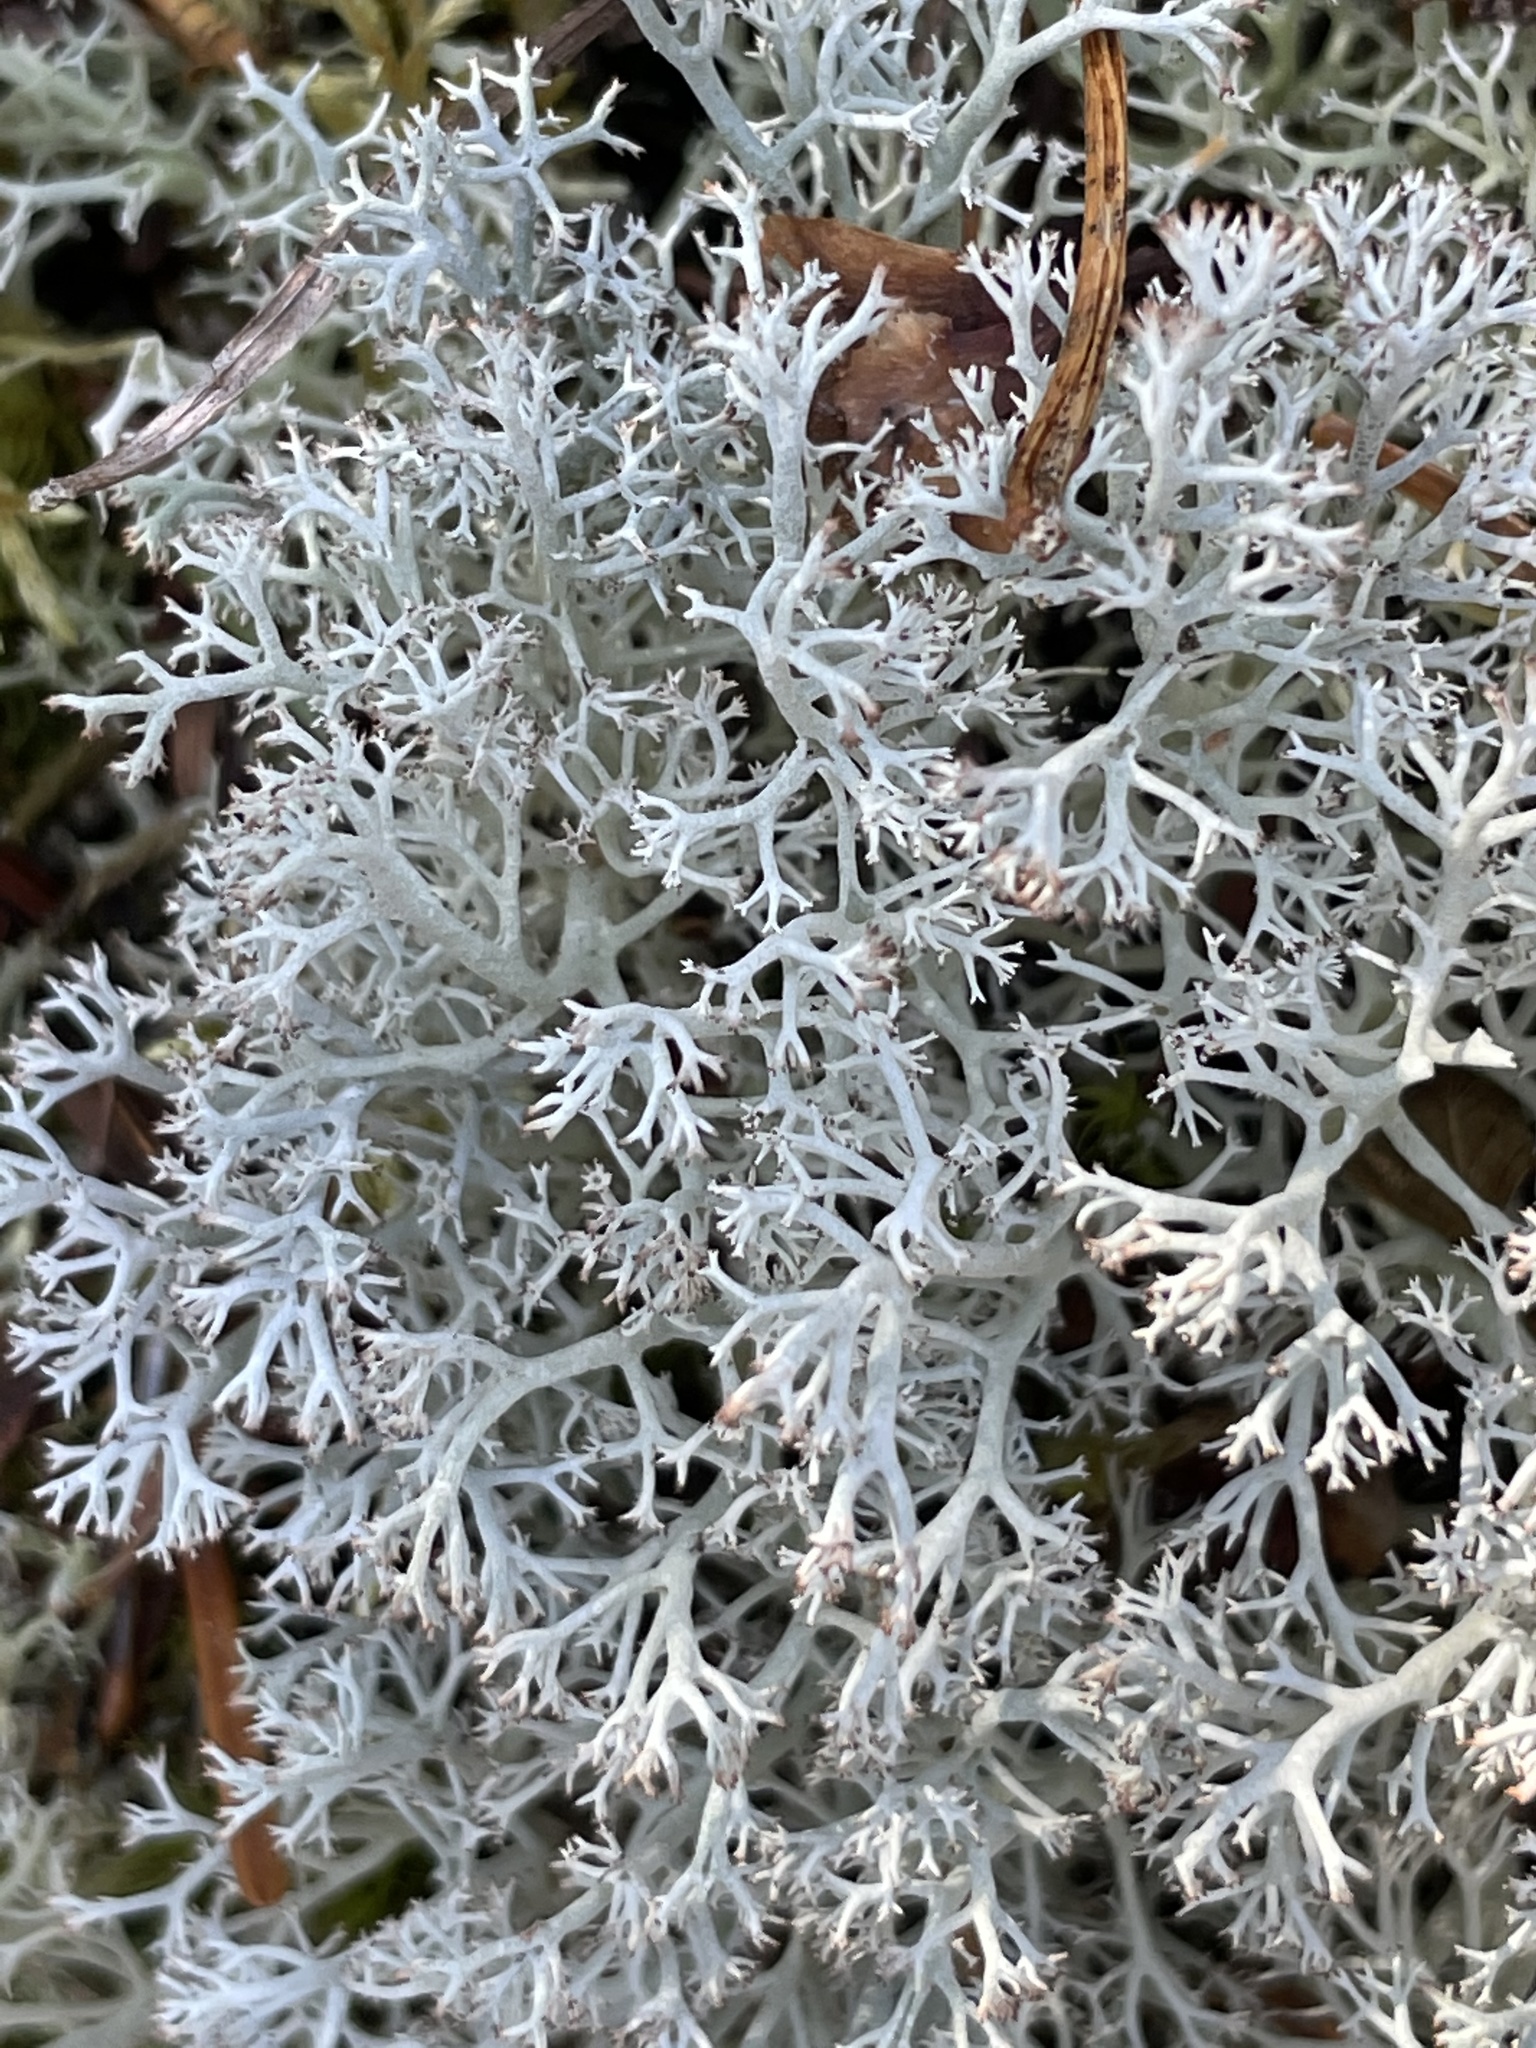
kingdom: Fungi
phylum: Ascomycota
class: Lecanoromycetes
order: Lecanorales
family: Cladoniaceae
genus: Cladonia
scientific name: Cladonia arbuscula
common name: Reindeer lichen
